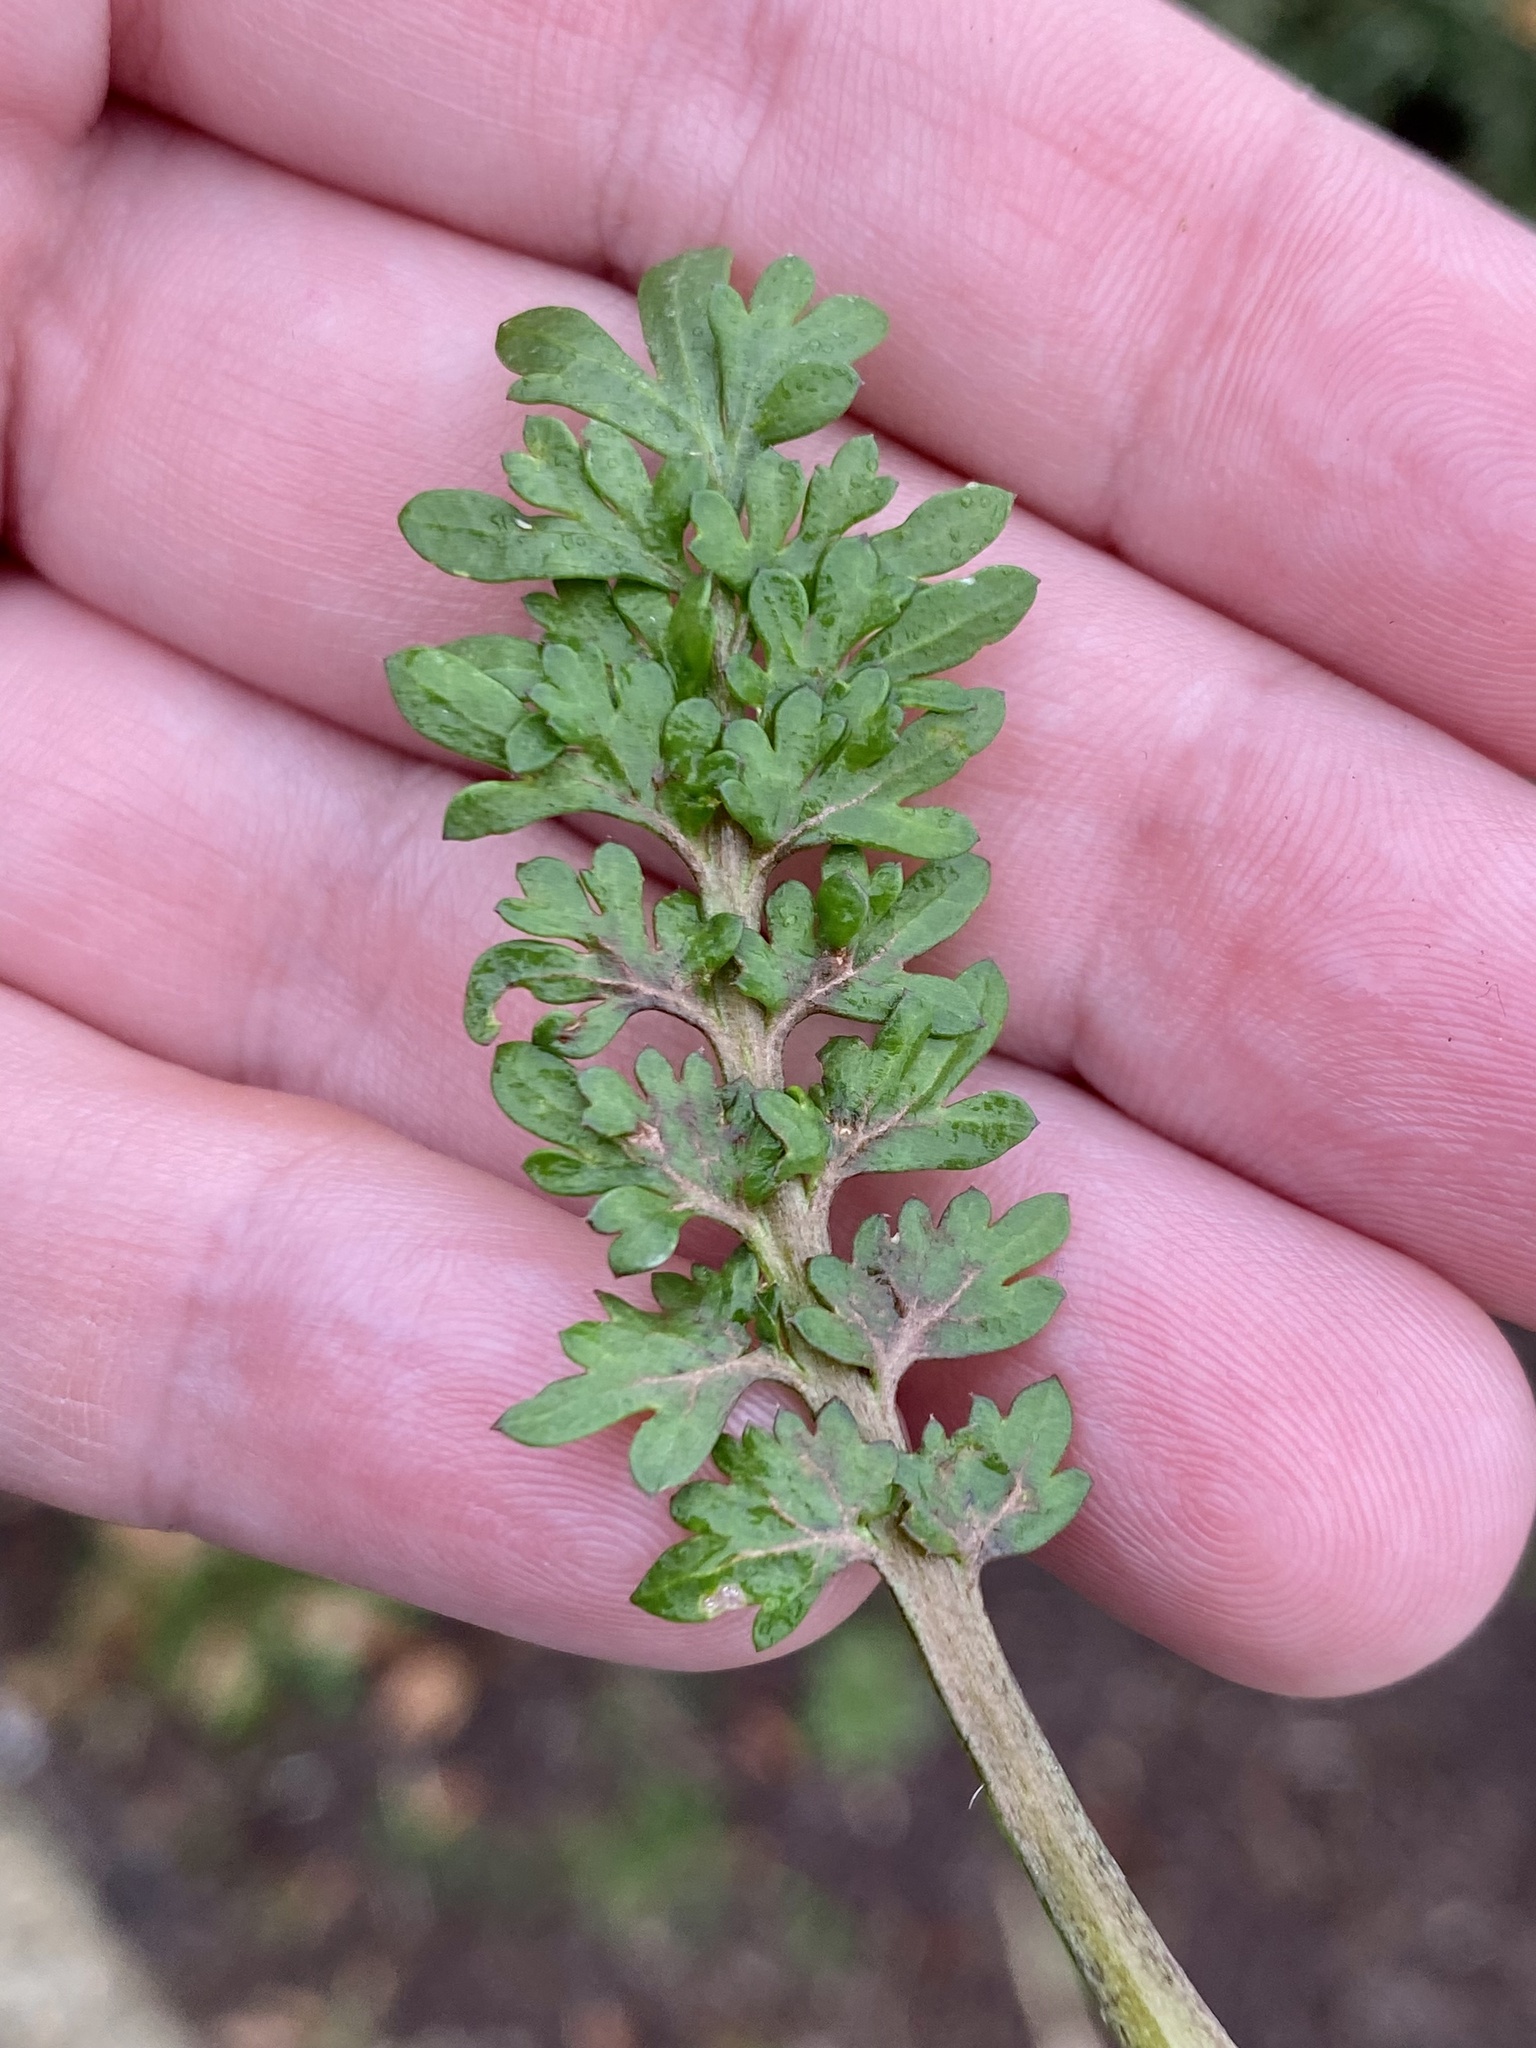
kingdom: Plantae
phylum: Tracheophyta
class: Magnoliopsida
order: Brassicales
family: Brassicaceae
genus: Lepidium
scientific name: Lepidium didymum
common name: Lesser swinecress
